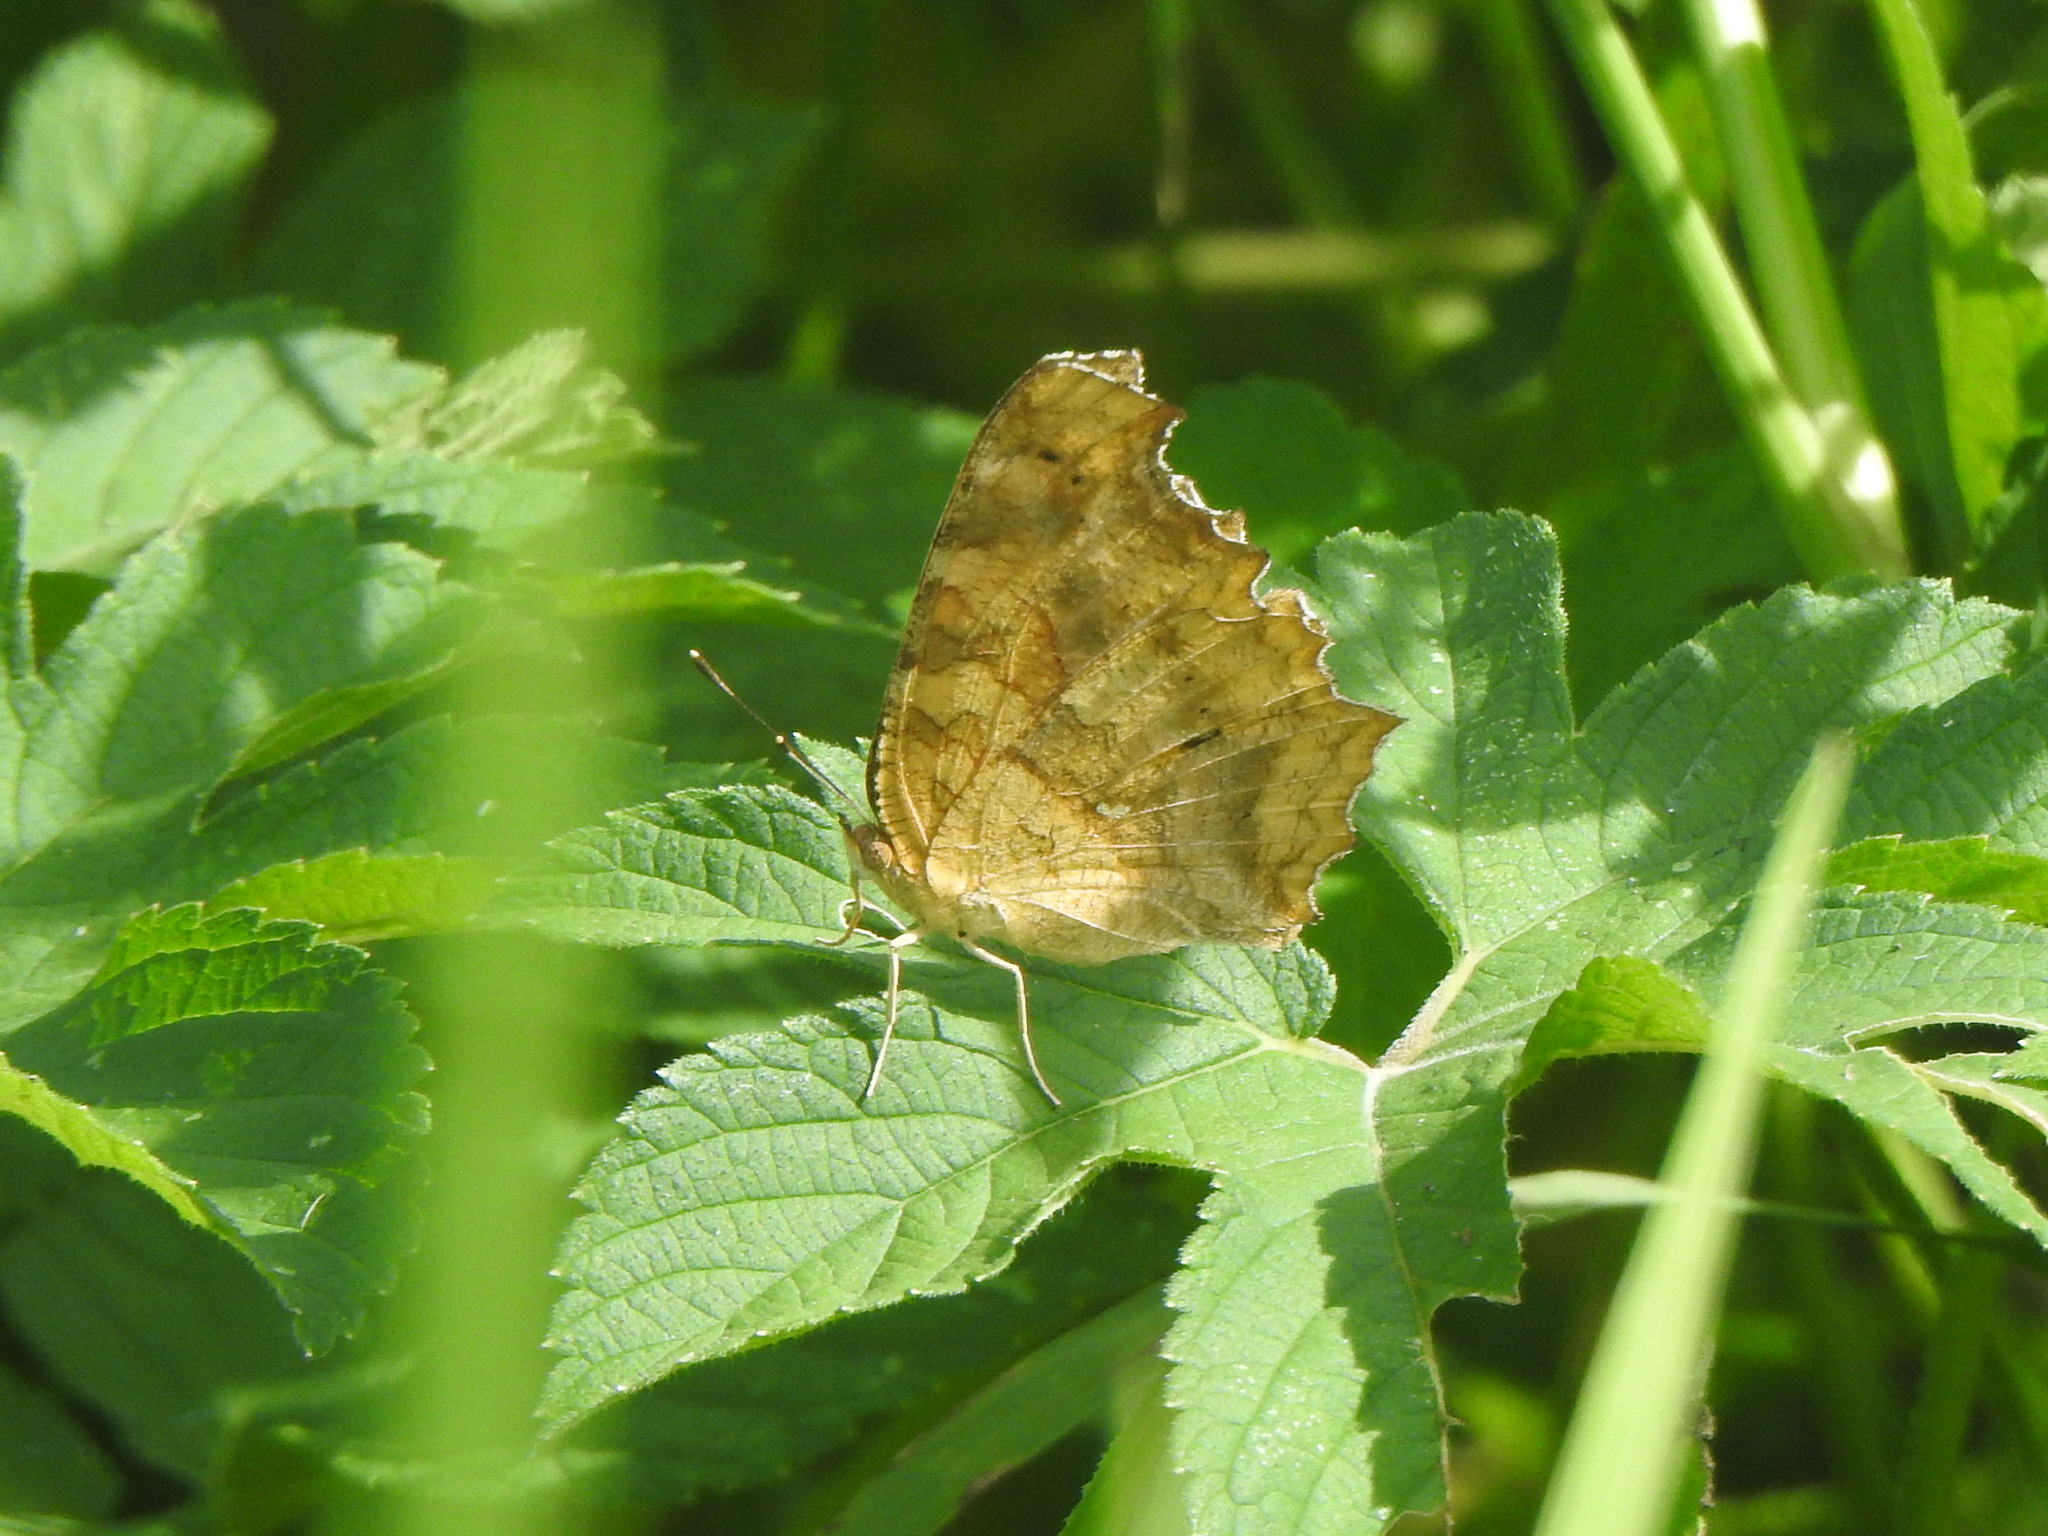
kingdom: Animalia
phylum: Arthropoda
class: Insecta
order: Lepidoptera
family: Nymphalidae
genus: Polygonia
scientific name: Polygonia c-aureum
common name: Asian comma
